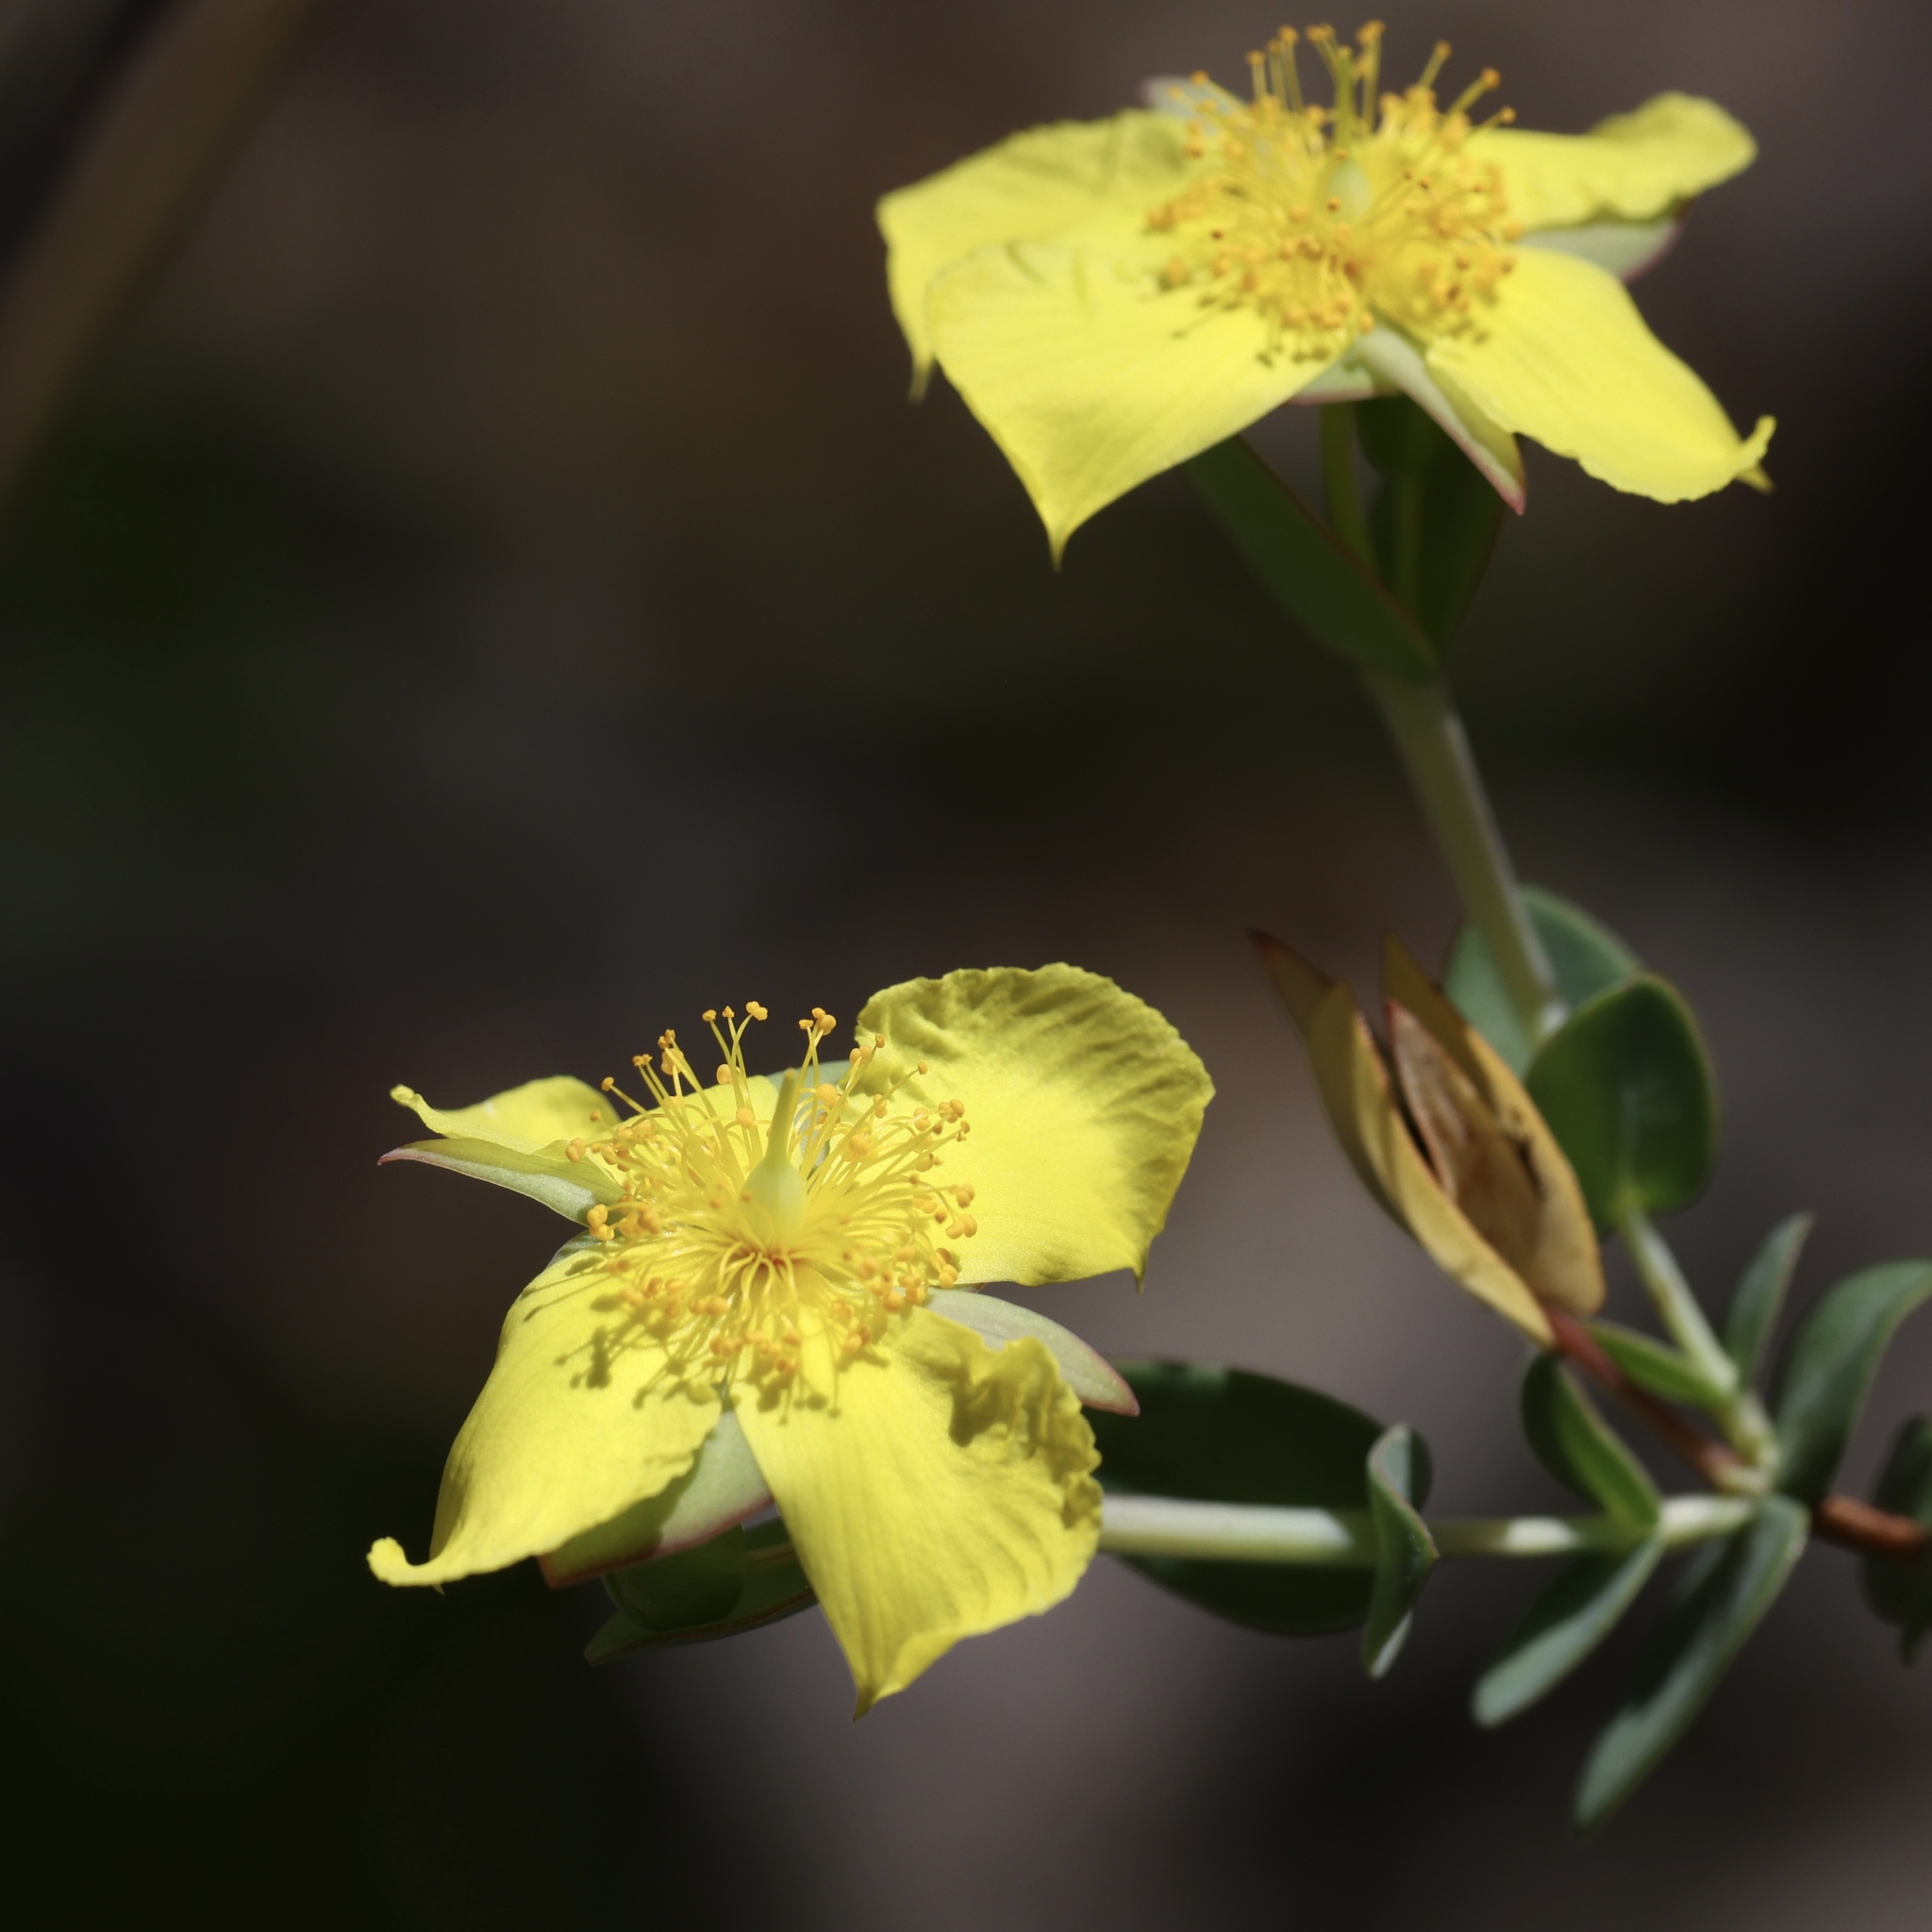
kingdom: Plantae
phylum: Tracheophyta
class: Magnoliopsida
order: Malpighiales
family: Hypericaceae
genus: Hypericum
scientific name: Hypericum tetrapetalum
